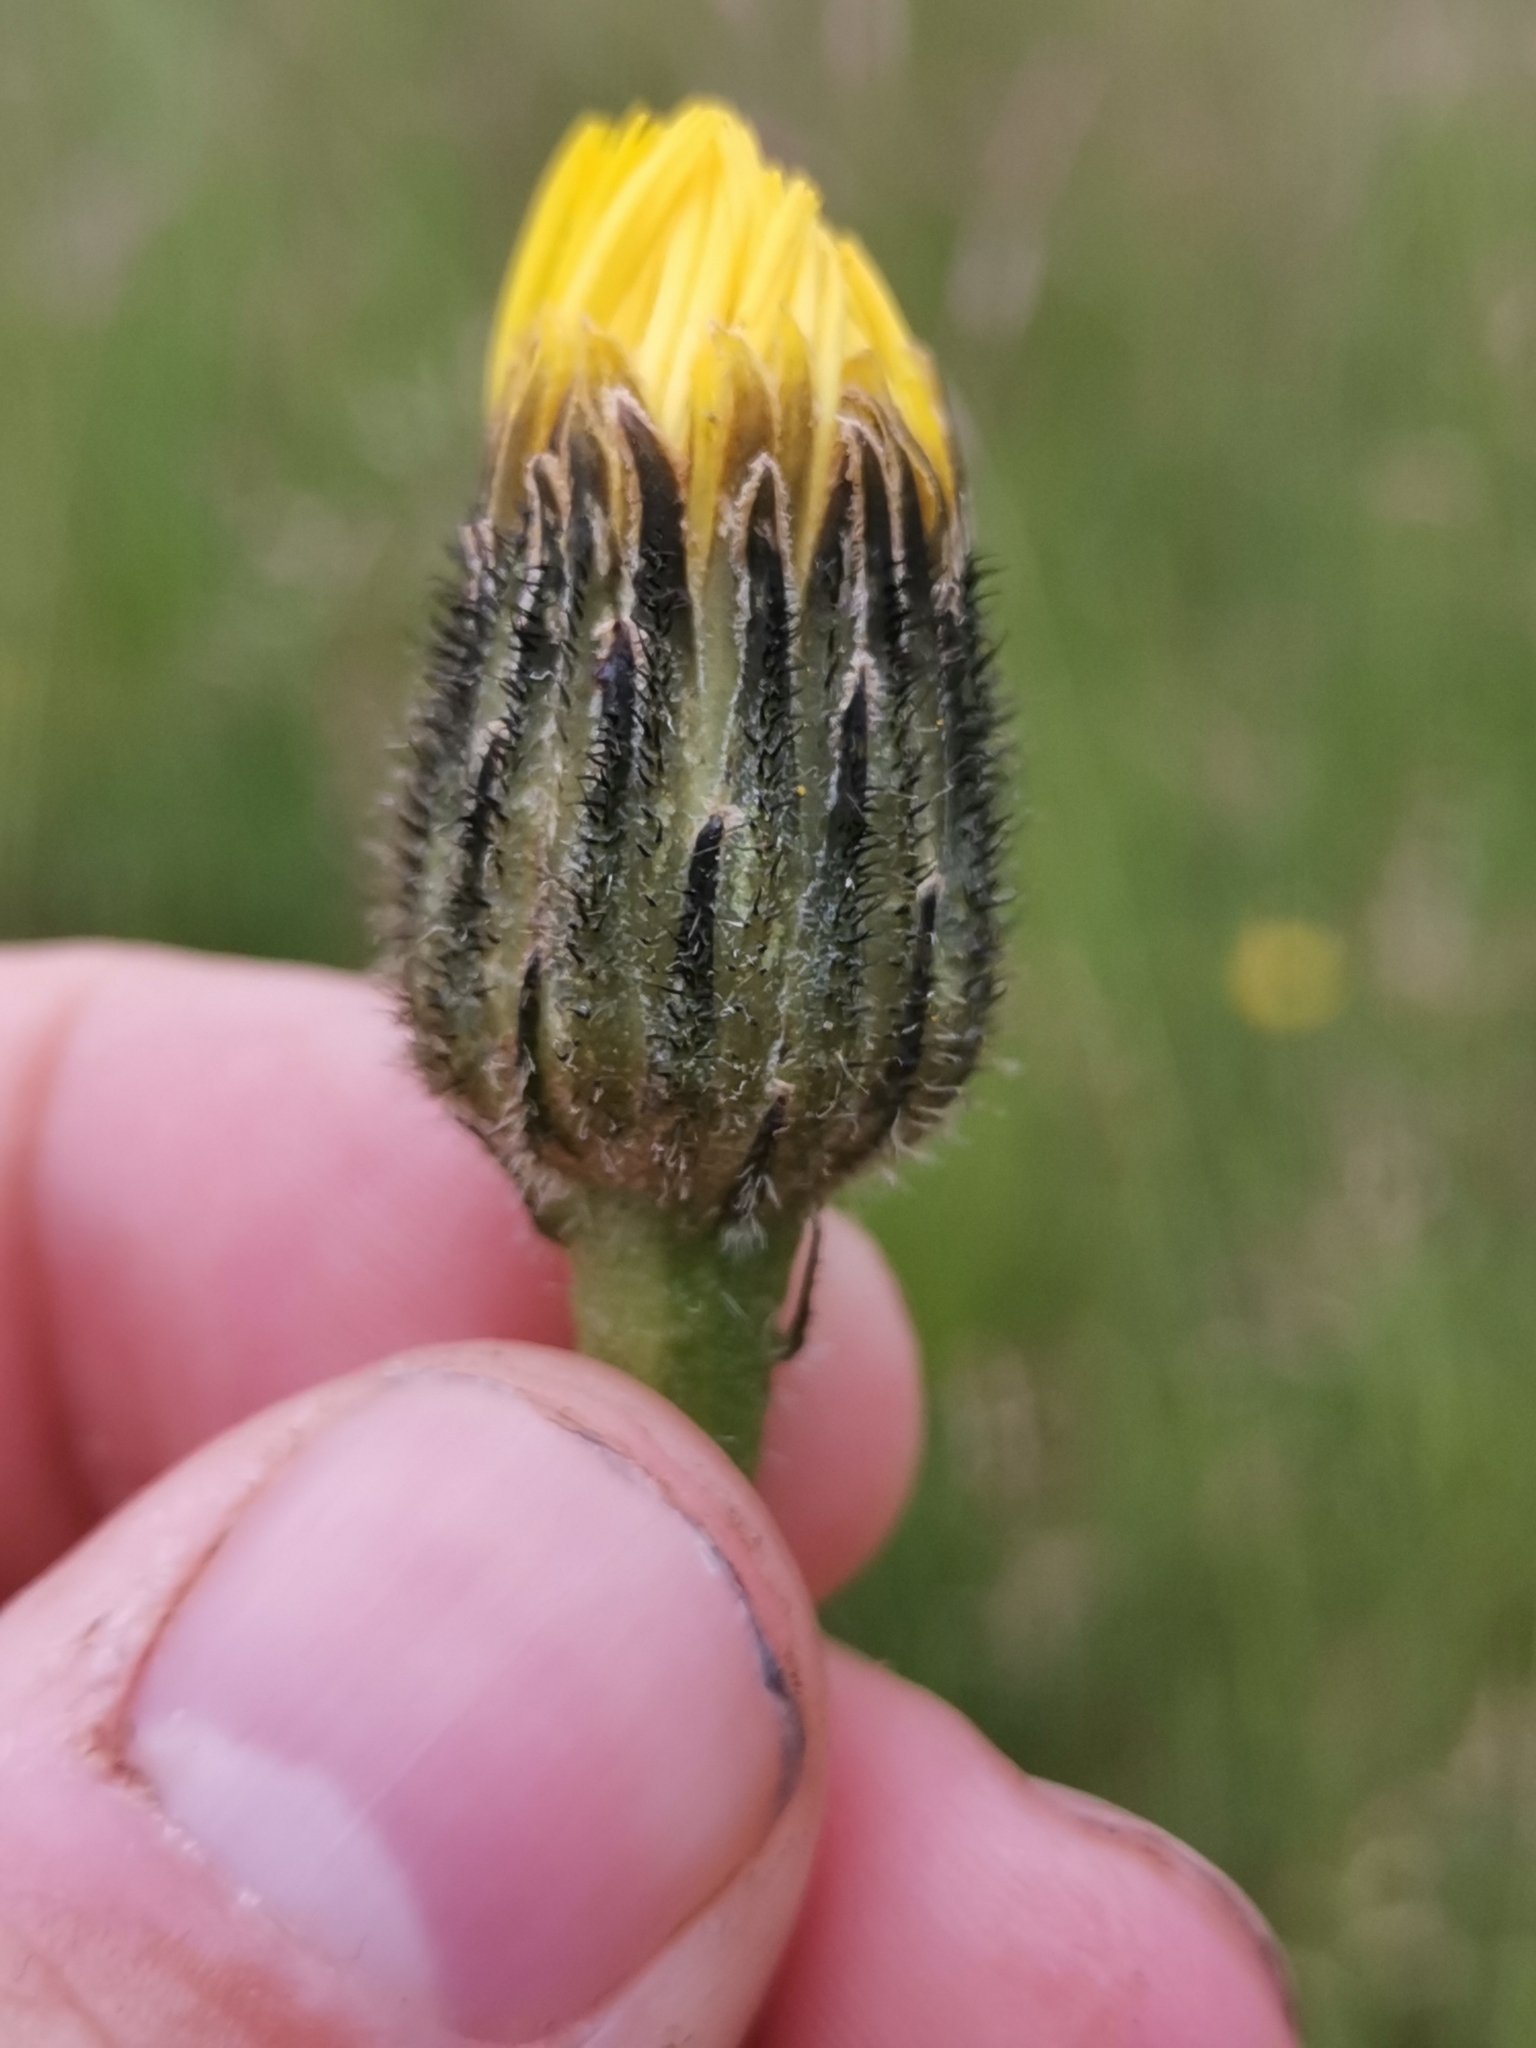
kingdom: Plantae
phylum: Tracheophyta
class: Magnoliopsida
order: Asterales
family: Asteraceae
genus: Trommsdorffia
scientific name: Trommsdorffia maculata
